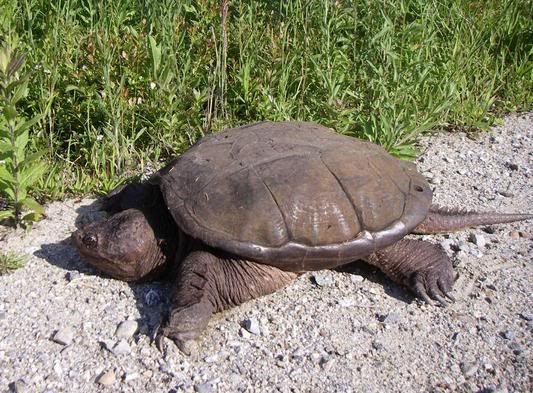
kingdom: Animalia
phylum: Chordata
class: Testudines
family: Chelydridae
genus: Chelydra
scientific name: Chelydra serpentina
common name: Common snapping turtle
